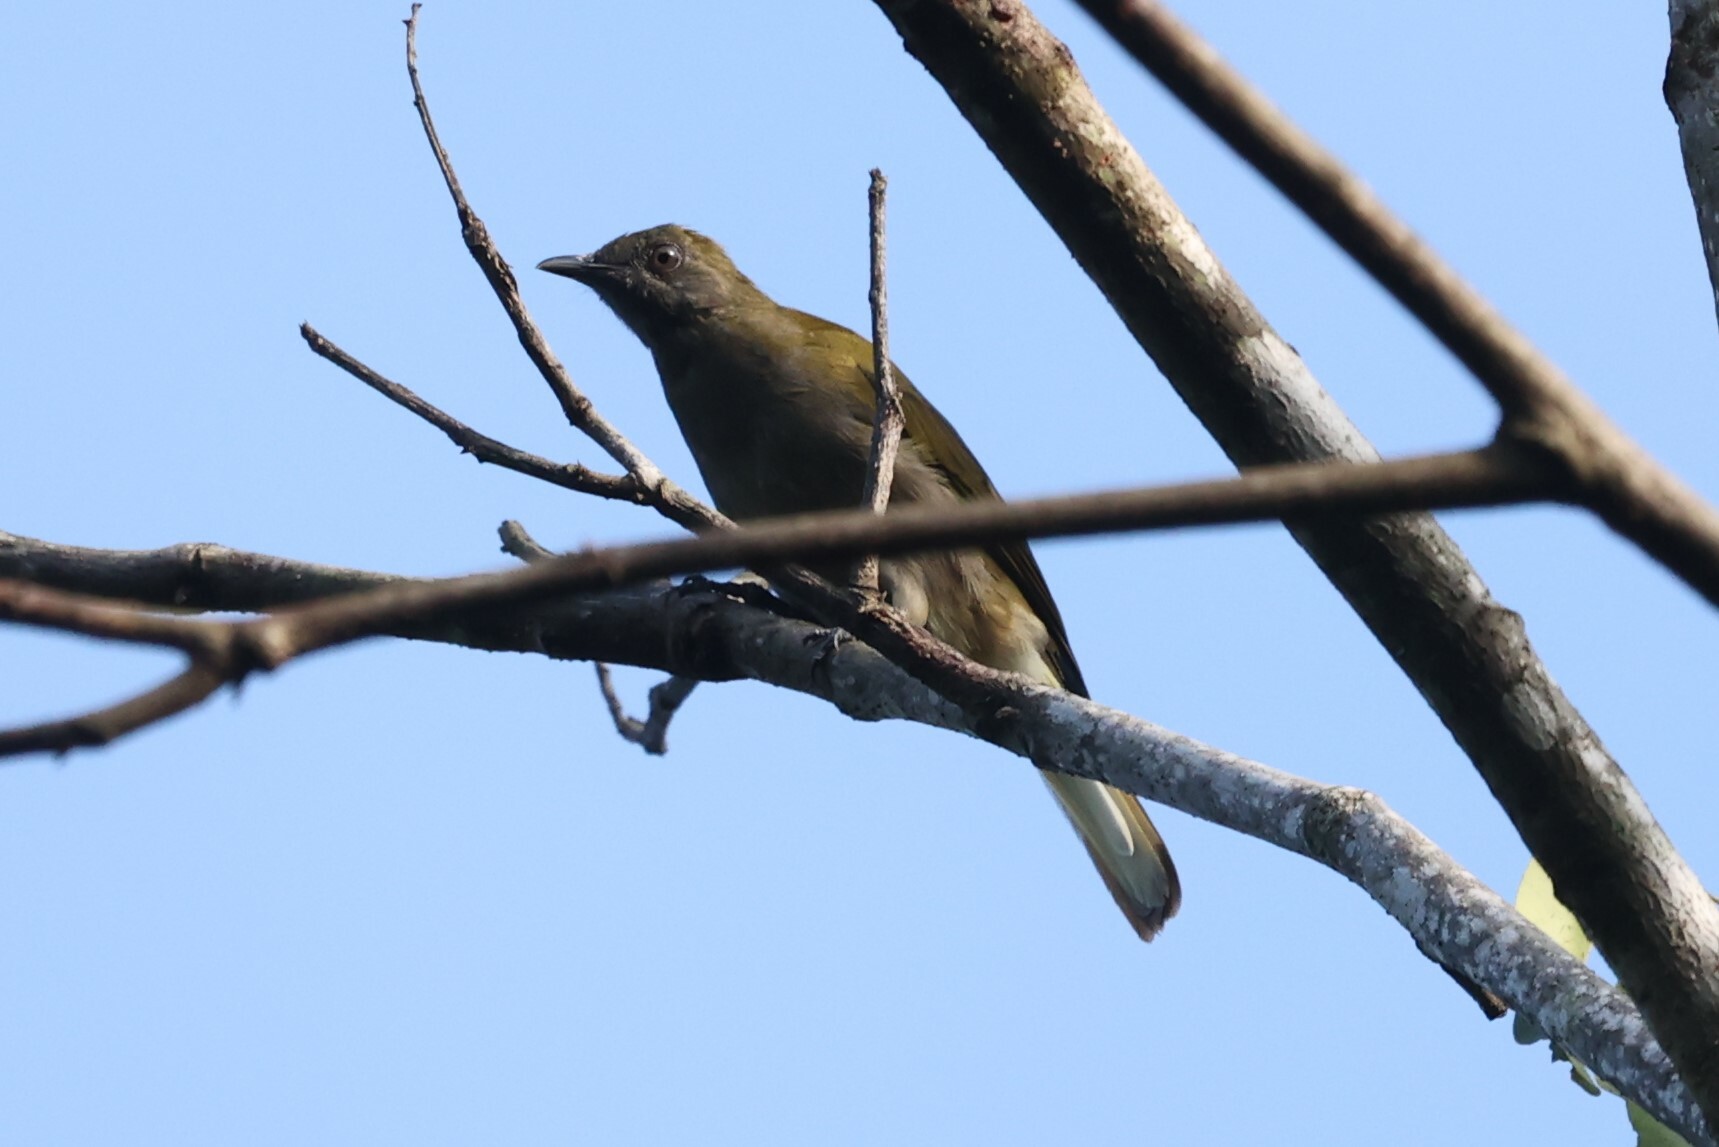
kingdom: Animalia
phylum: Chordata
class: Aves
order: Passeriformes
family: Pycnonotidae
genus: Baeopogon
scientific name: Baeopogon indicator
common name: Honeyguide greenbul
